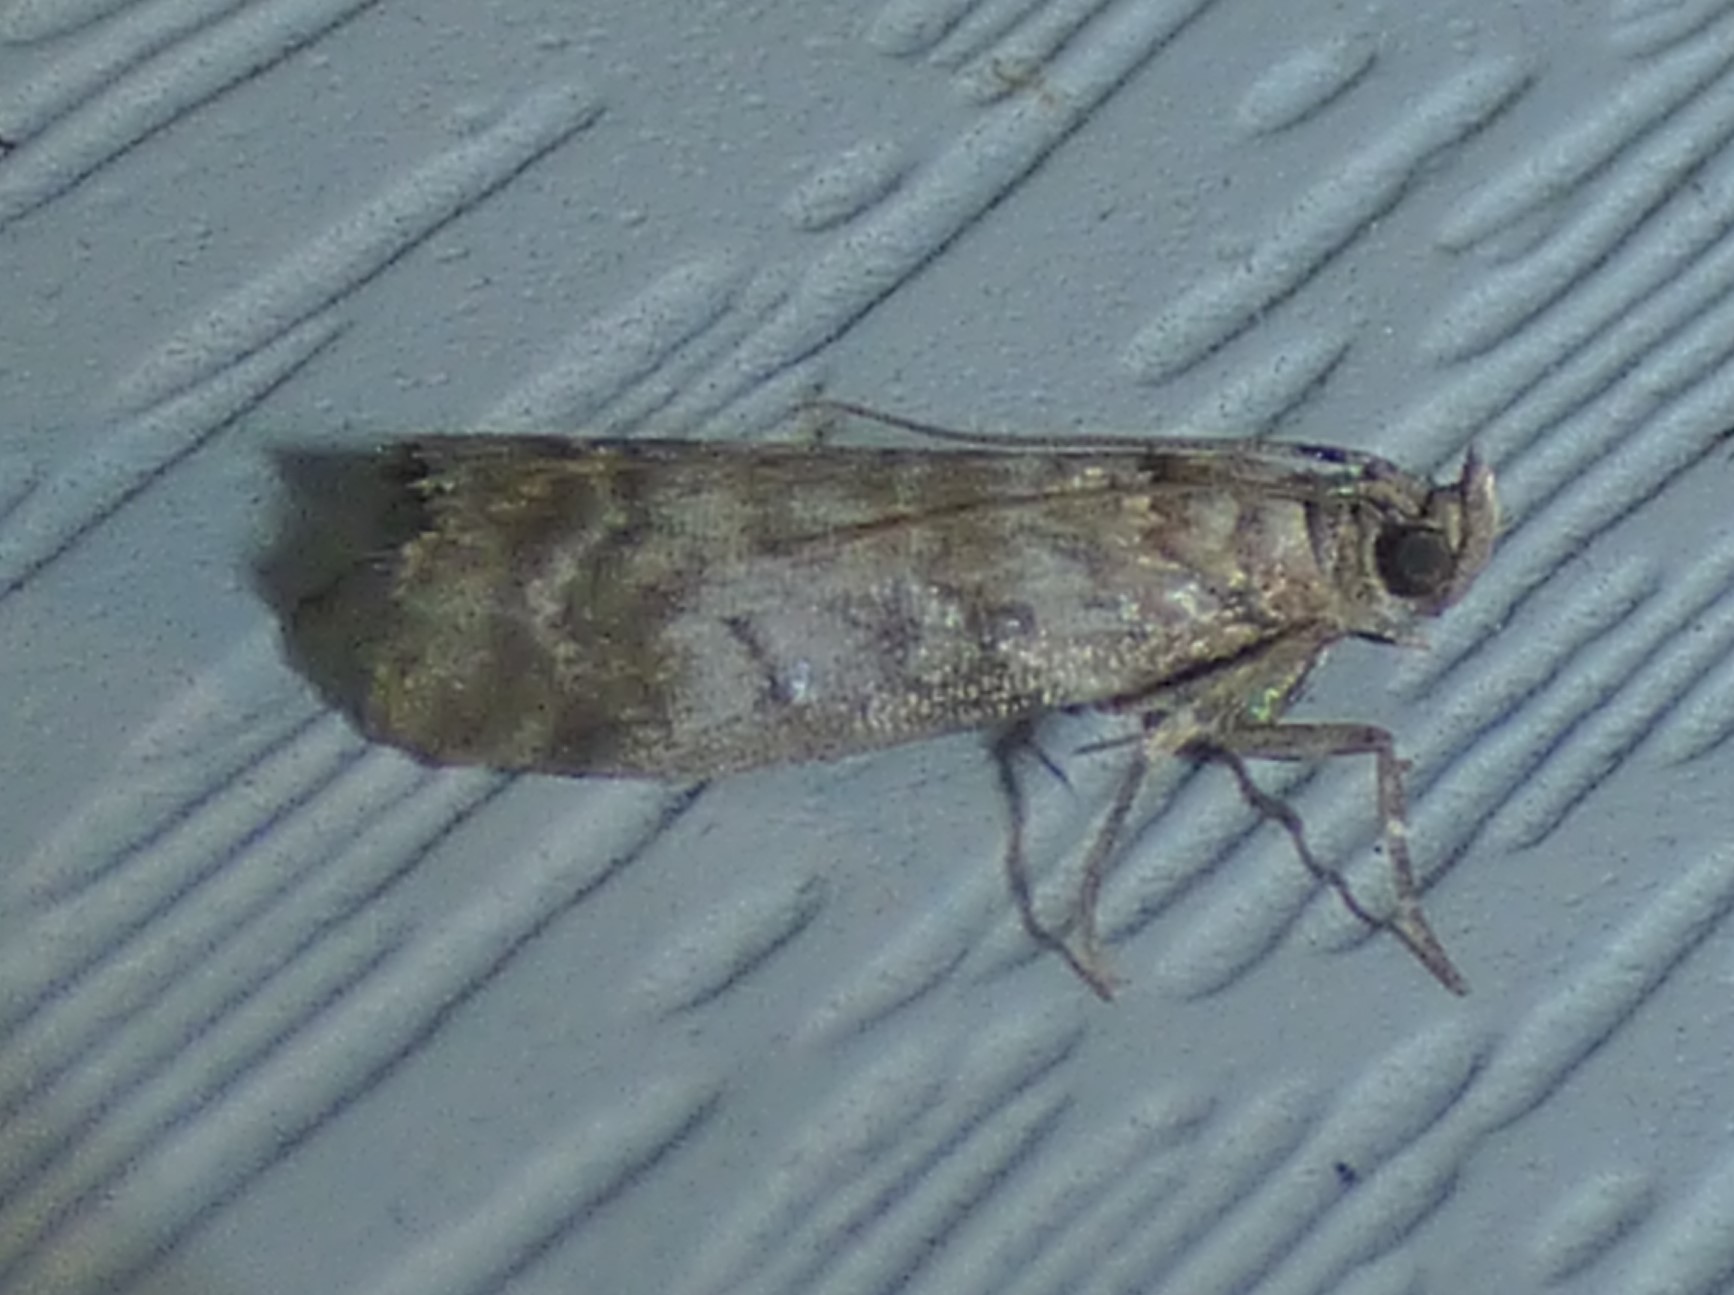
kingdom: Animalia
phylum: Arthropoda
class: Insecta
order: Lepidoptera
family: Pyralidae
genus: Sciota
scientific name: Sciota uvinella
